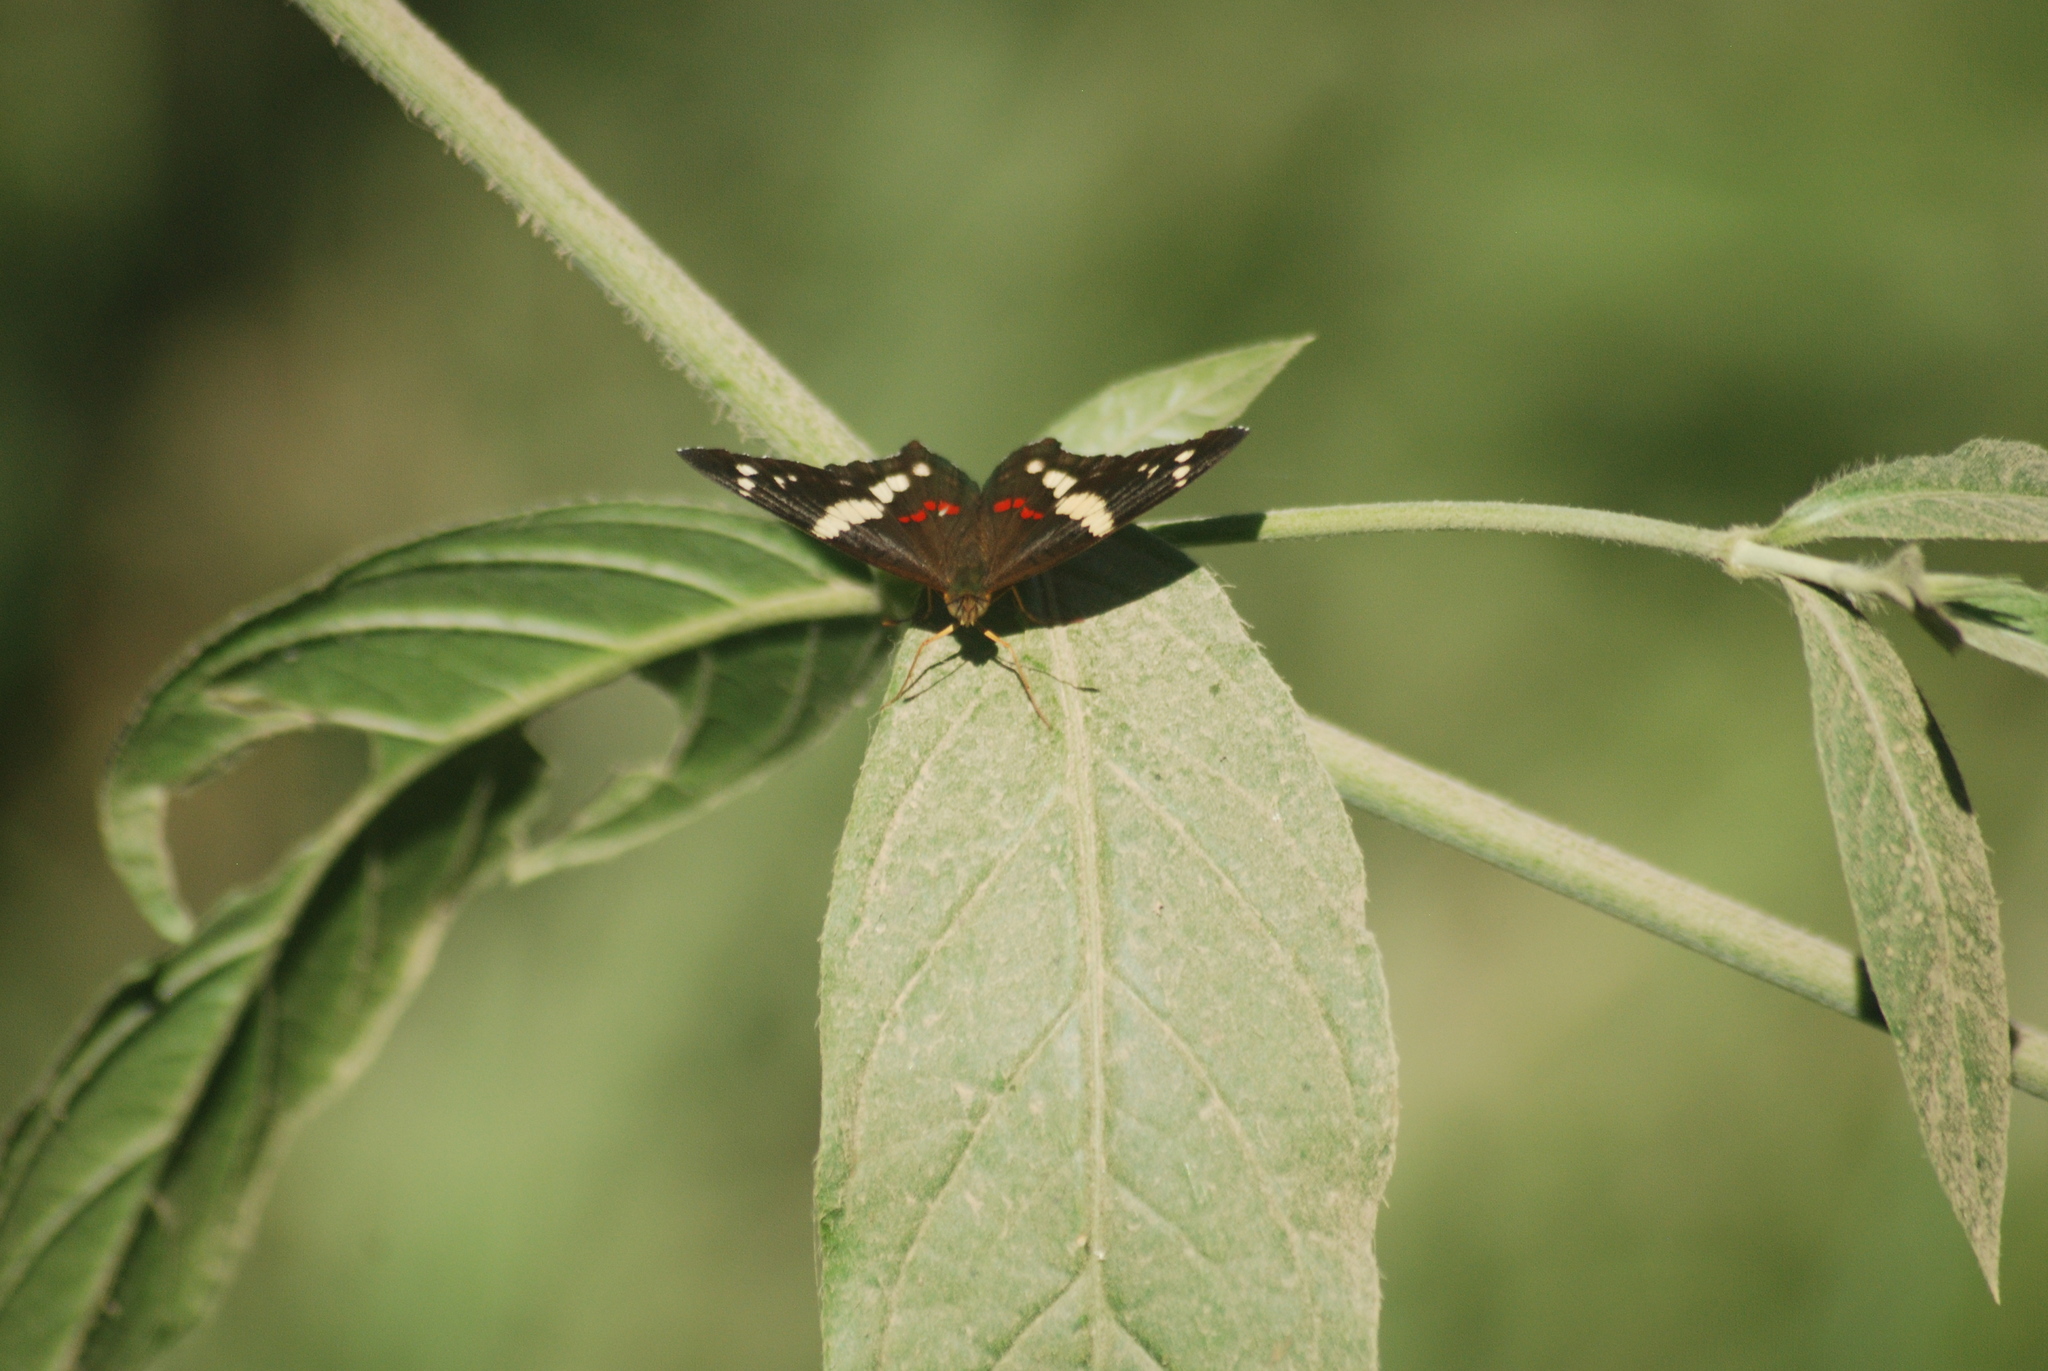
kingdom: Animalia
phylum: Arthropoda
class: Insecta
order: Lepidoptera
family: Nymphalidae
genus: Anartia
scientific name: Anartia fatima
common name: Banded peacock
